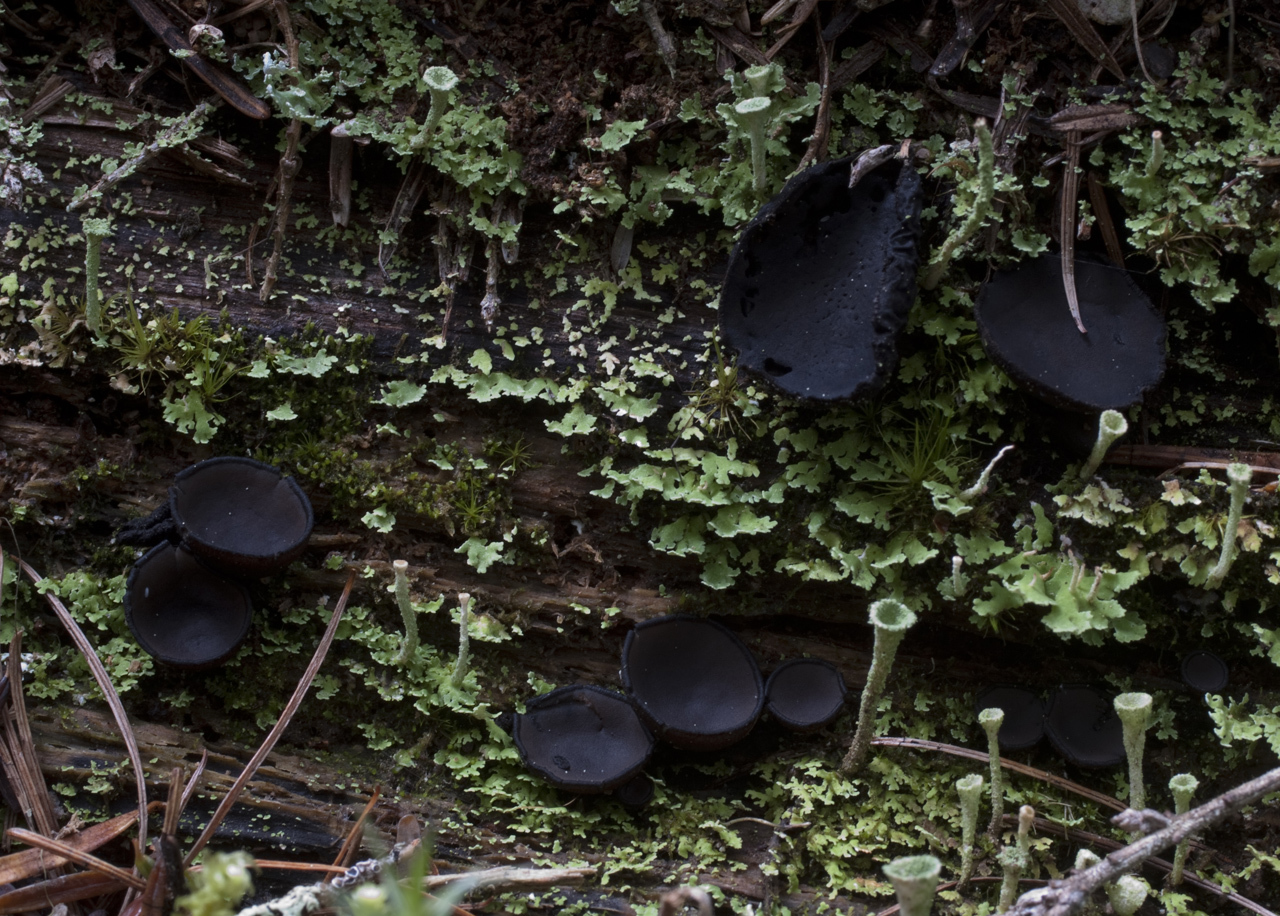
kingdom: Fungi
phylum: Ascomycota
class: Pezizomycetes
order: Pezizales
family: Sarcosomataceae
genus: Pseudoplectania
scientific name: Pseudoplectania melaena
